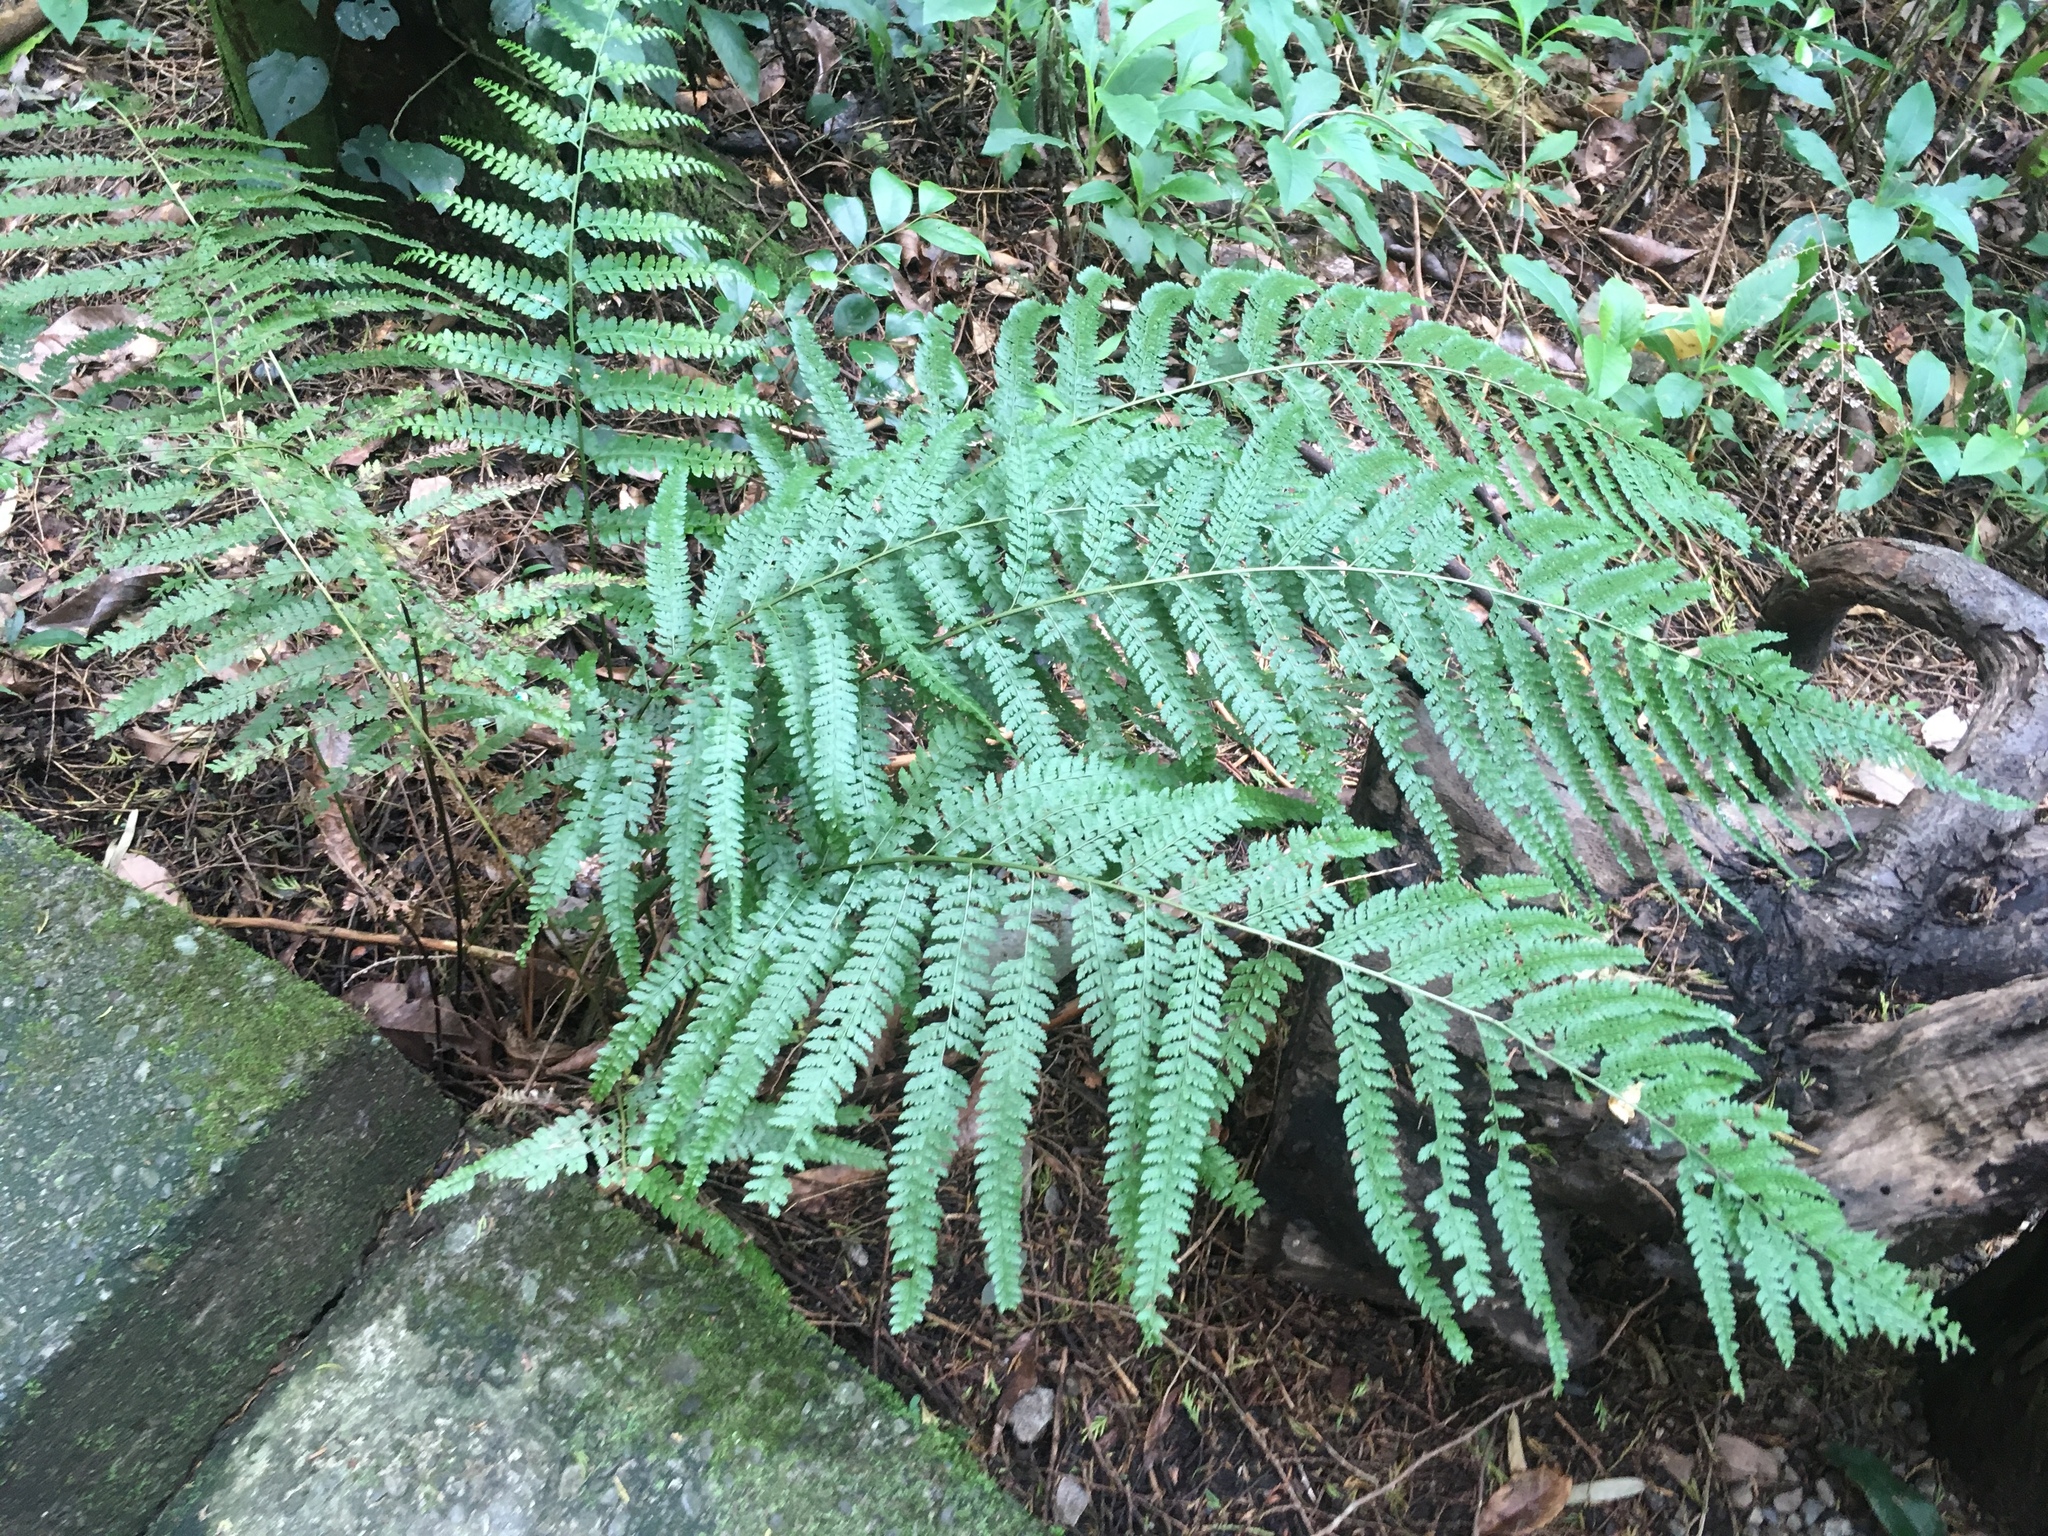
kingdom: Plantae
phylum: Tracheophyta
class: Polypodiopsida
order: Polypodiales
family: Dennstaedtiaceae
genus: Microlepia
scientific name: Microlepia strigosa
